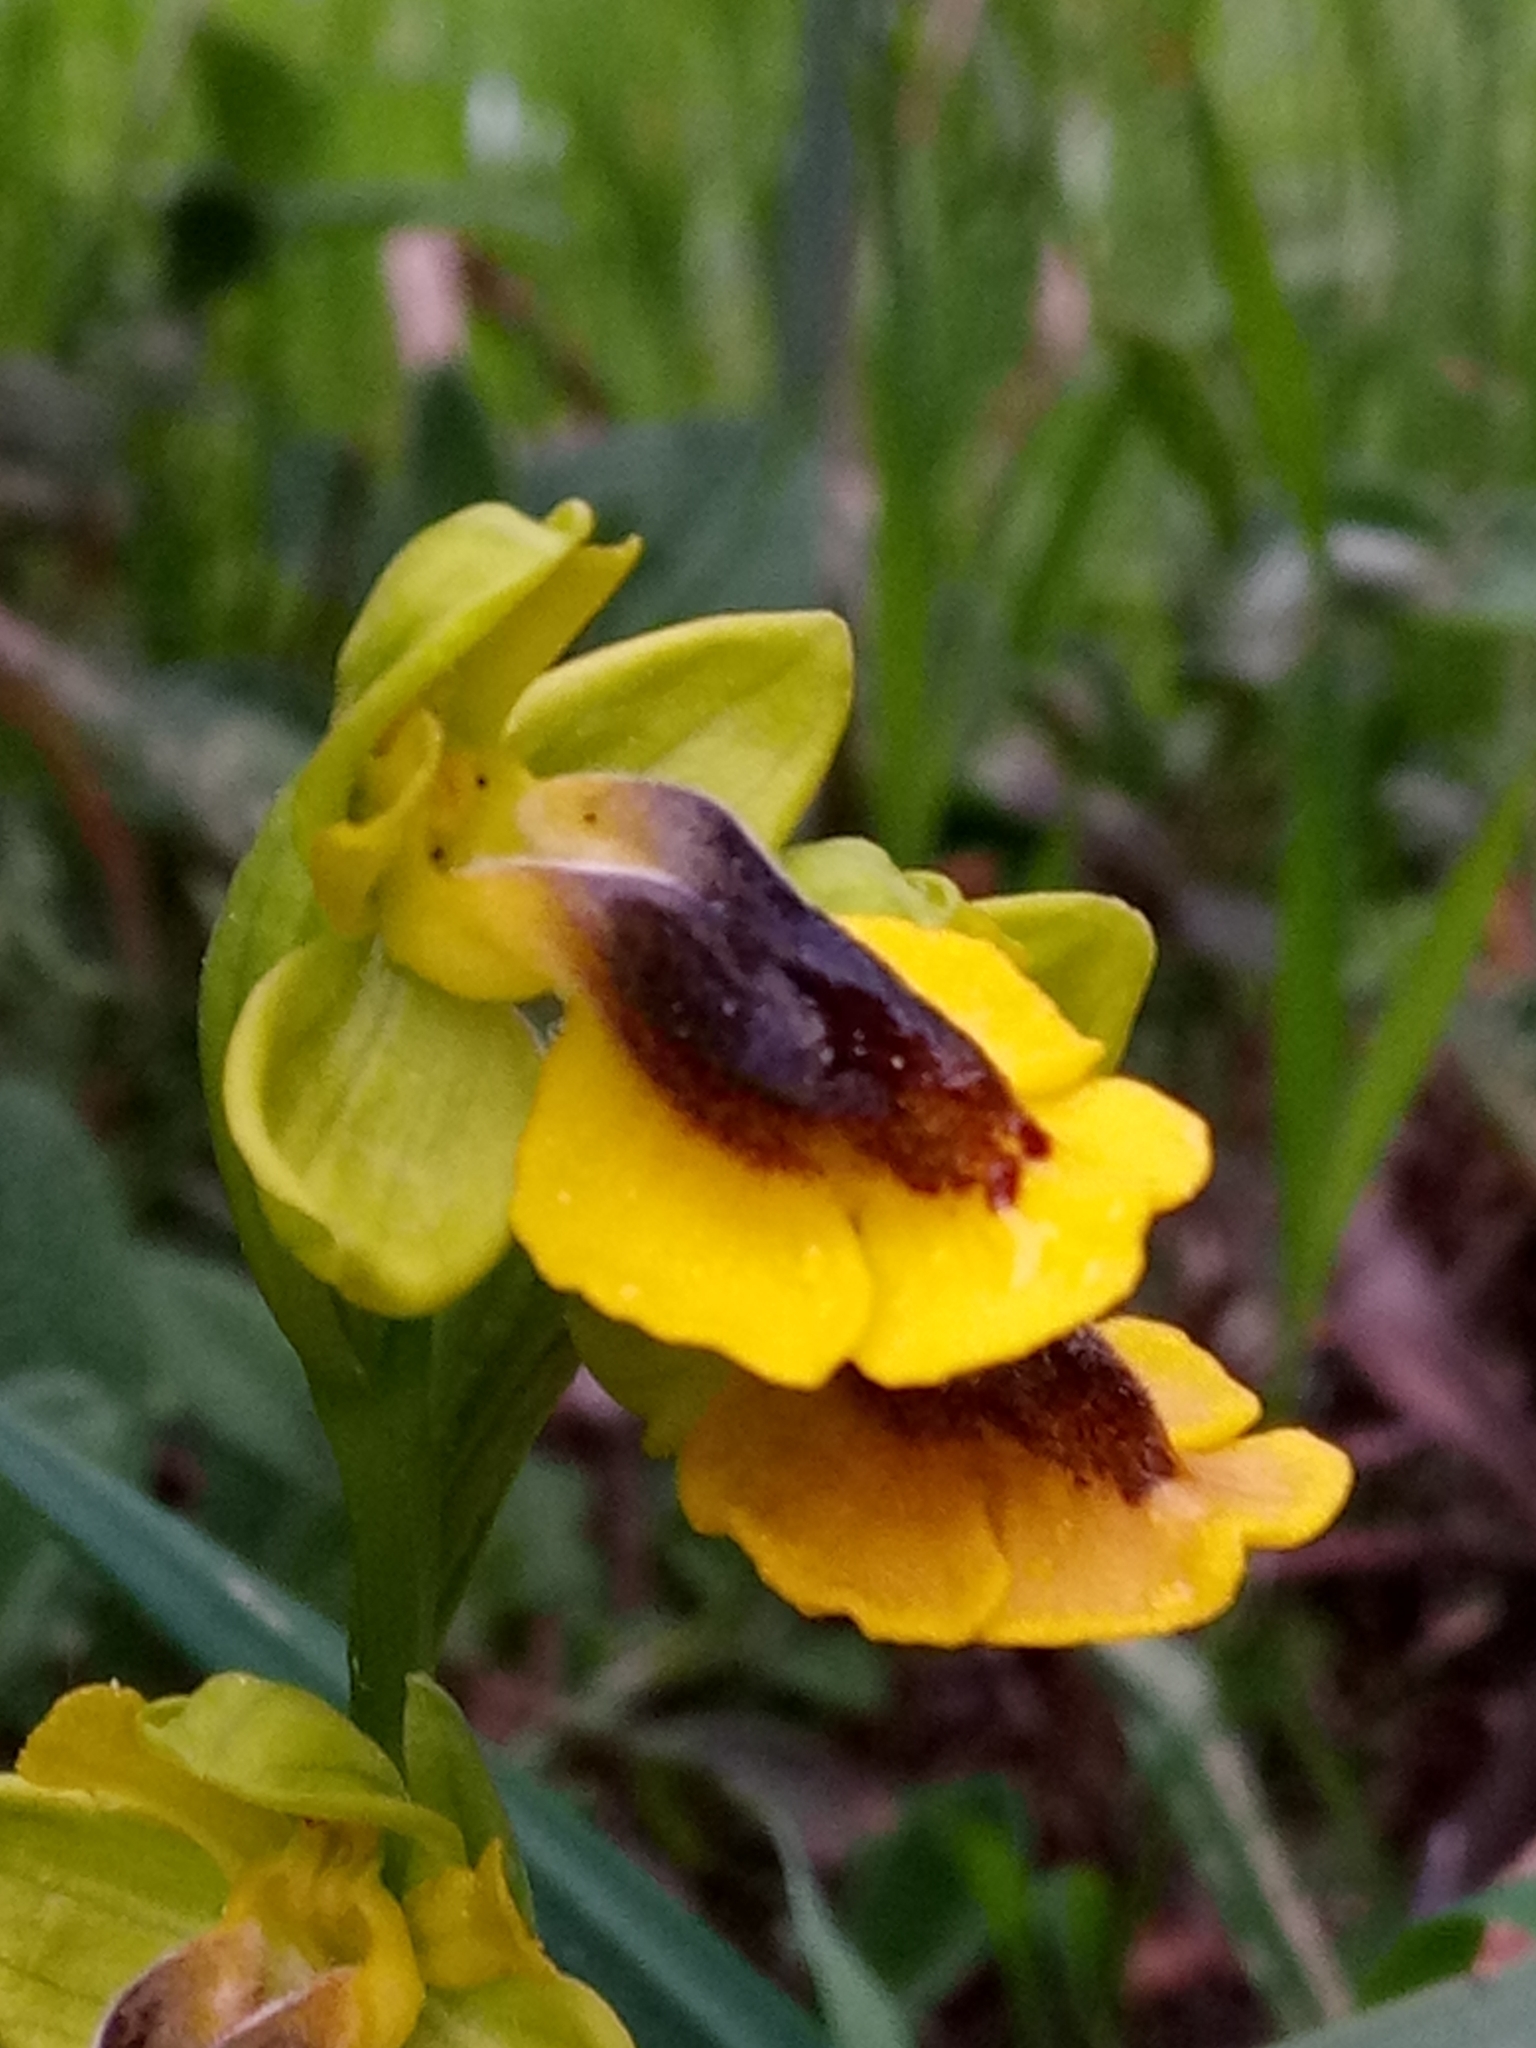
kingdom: Plantae
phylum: Tracheophyta
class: Liliopsida
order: Asparagales
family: Orchidaceae
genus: Ophrys
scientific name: Ophrys lutea
